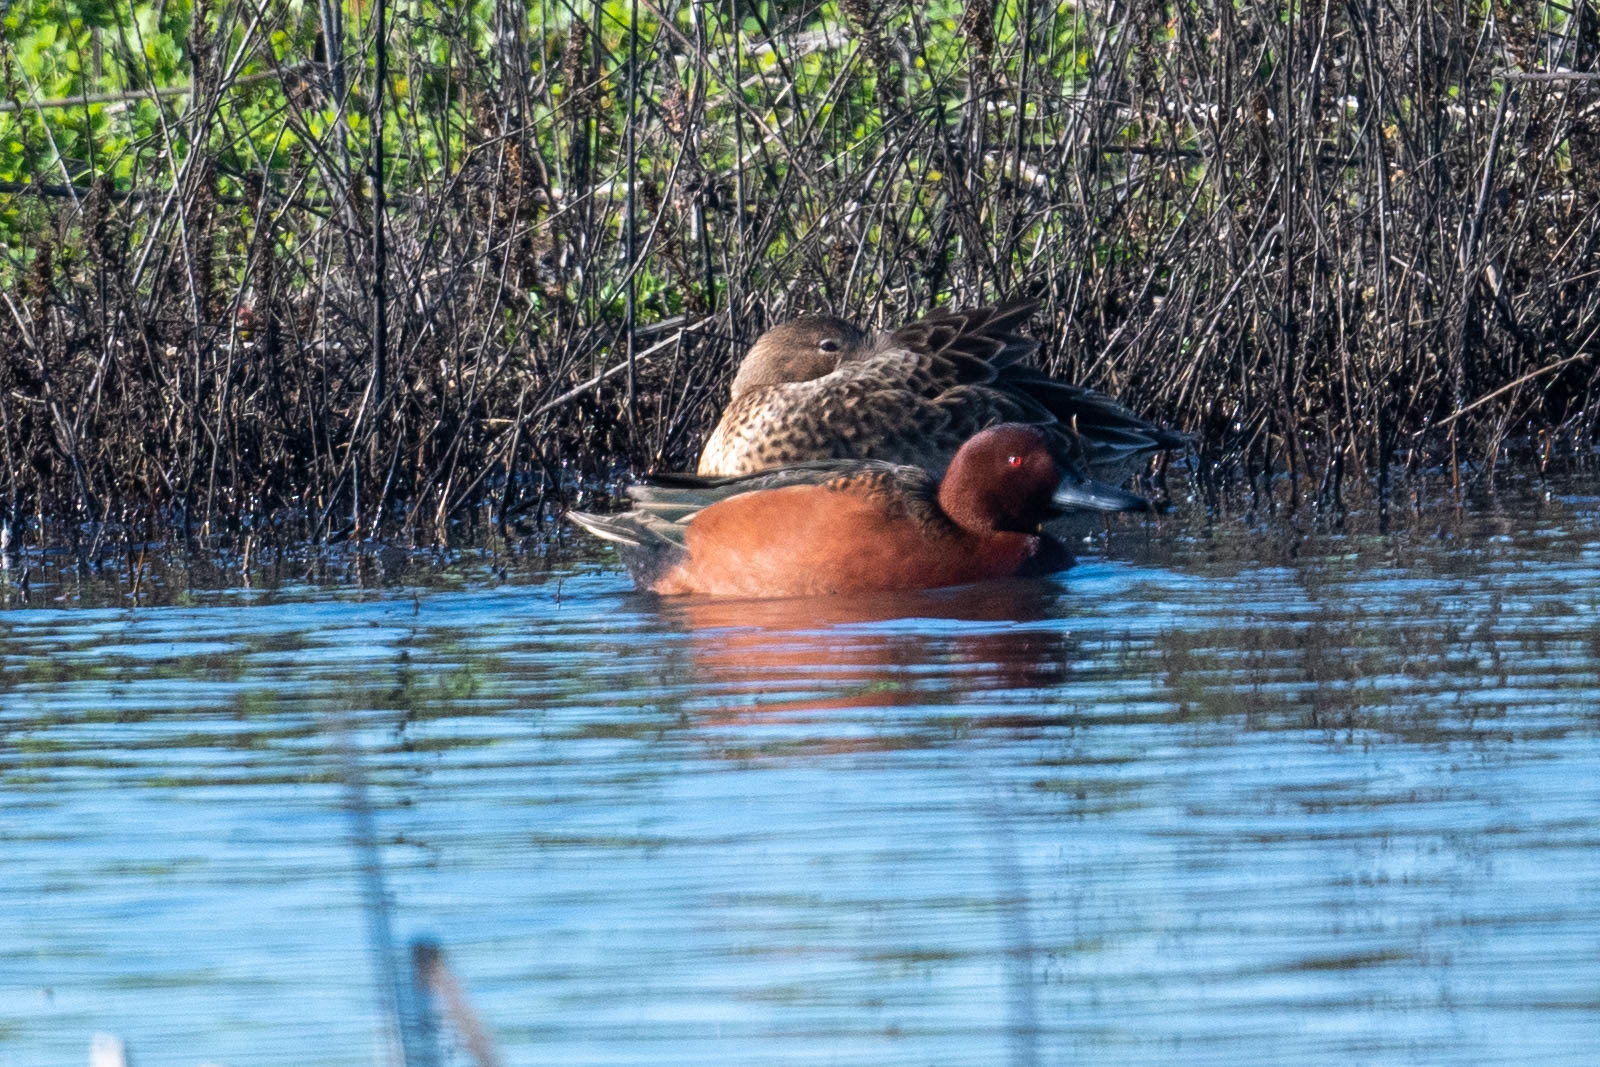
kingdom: Animalia
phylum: Chordata
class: Aves
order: Anseriformes
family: Anatidae
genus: Spatula
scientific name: Spatula cyanoptera
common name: Cinnamon teal
